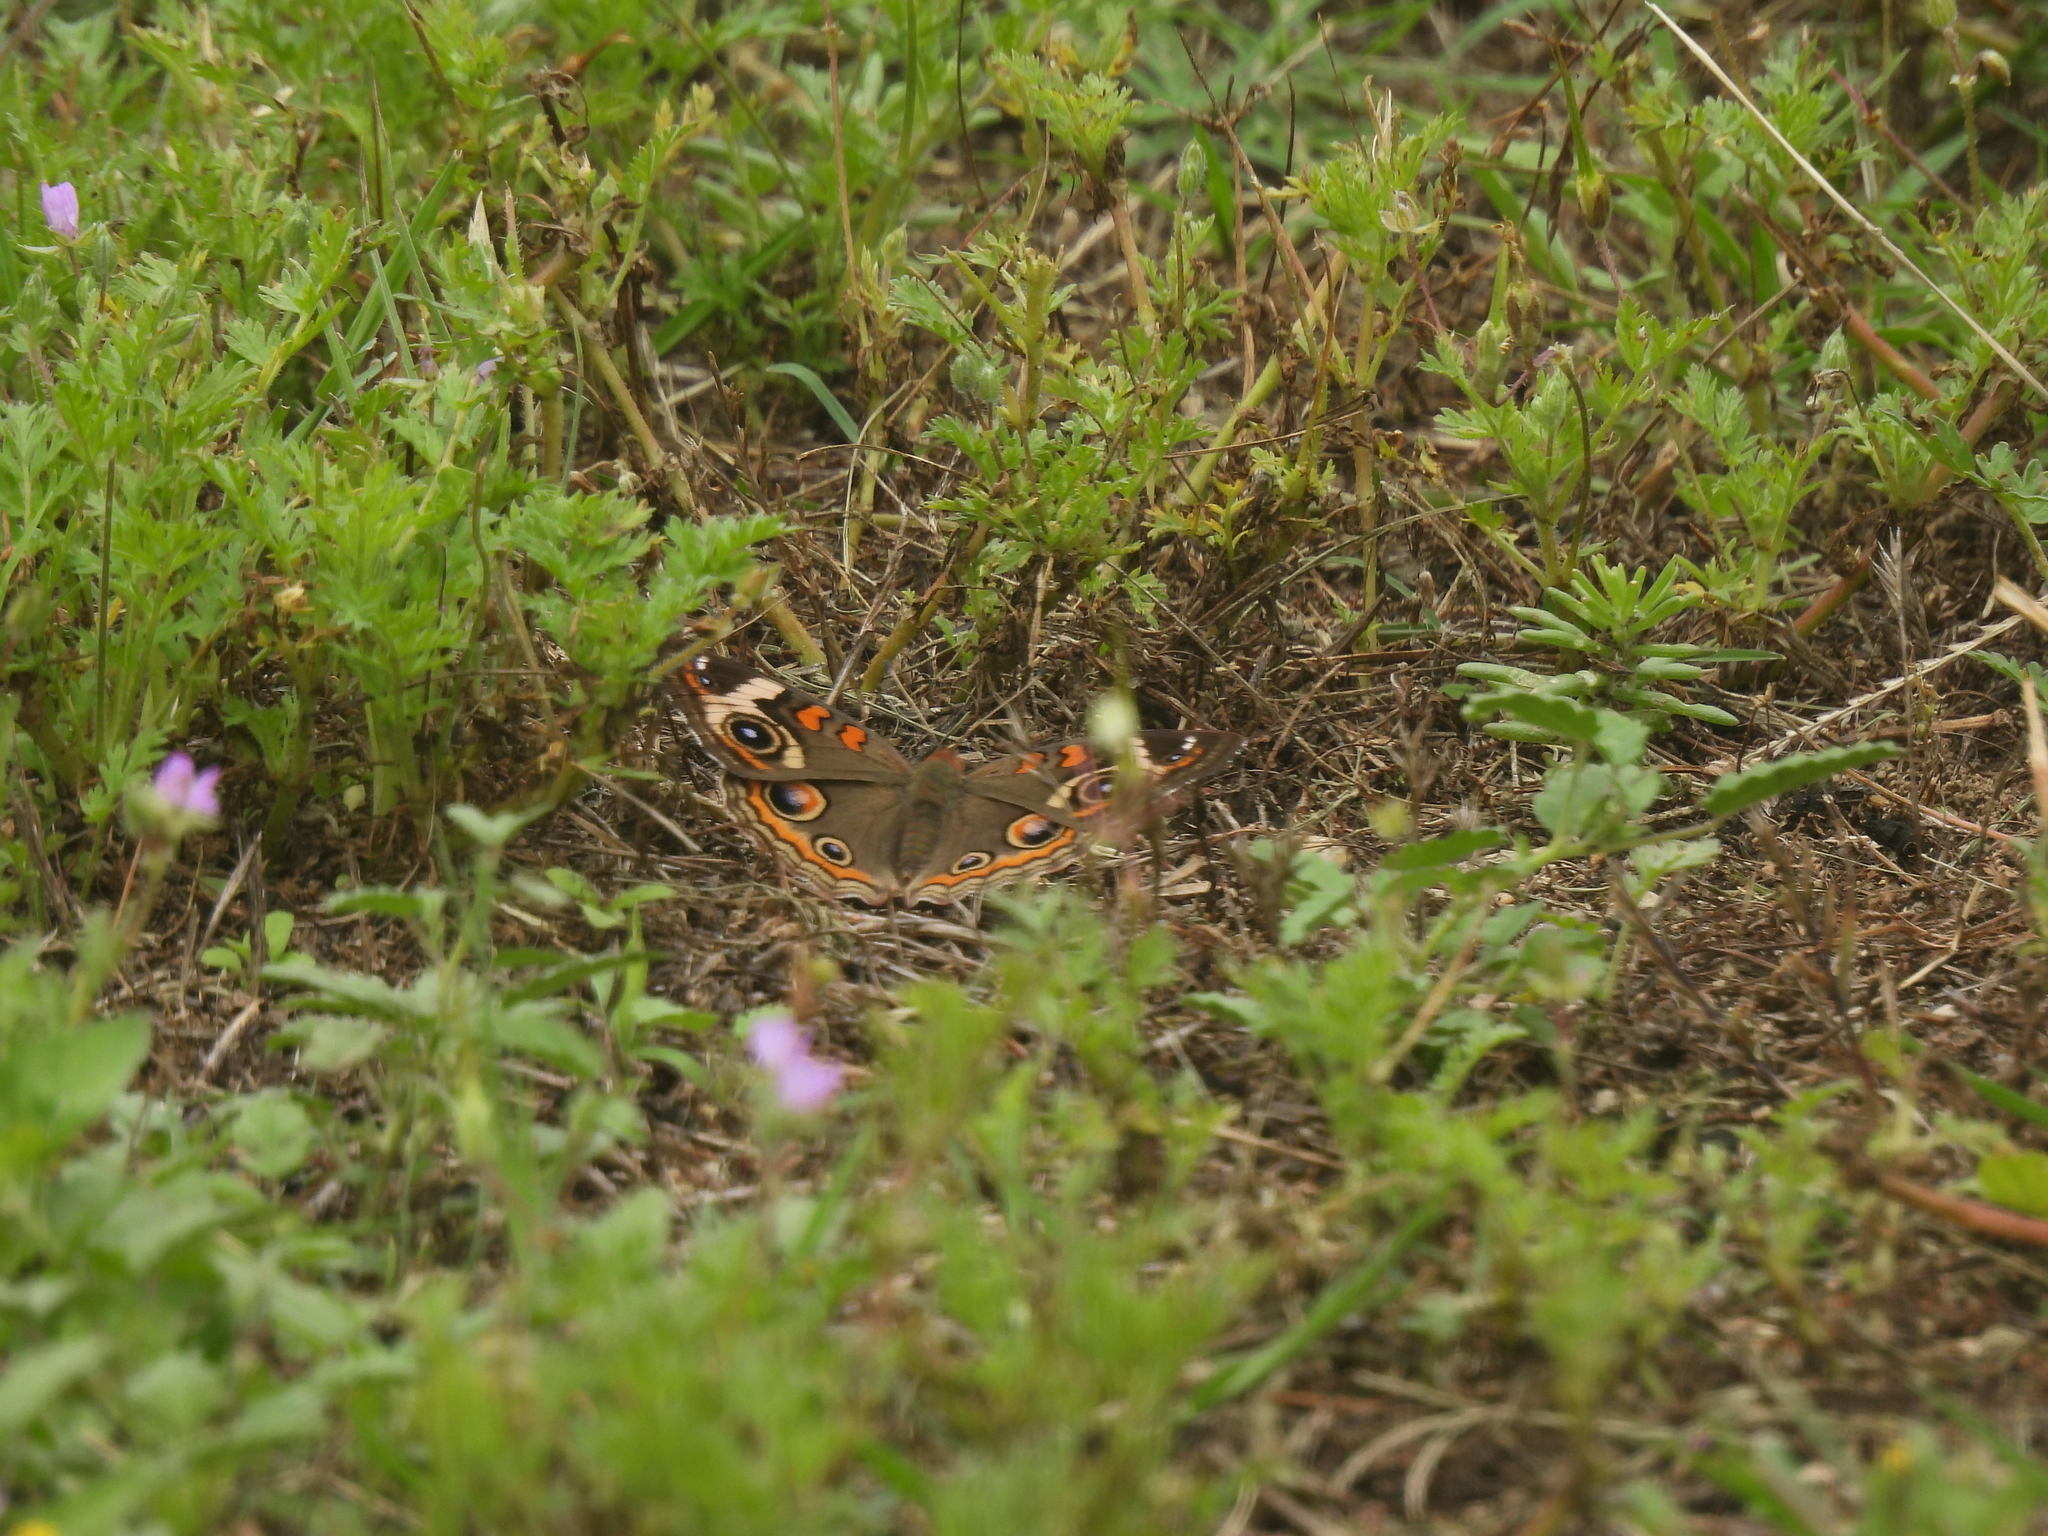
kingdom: Animalia
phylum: Arthropoda
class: Insecta
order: Lepidoptera
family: Nymphalidae
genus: Junonia
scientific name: Junonia coenia
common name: Common buckeye
